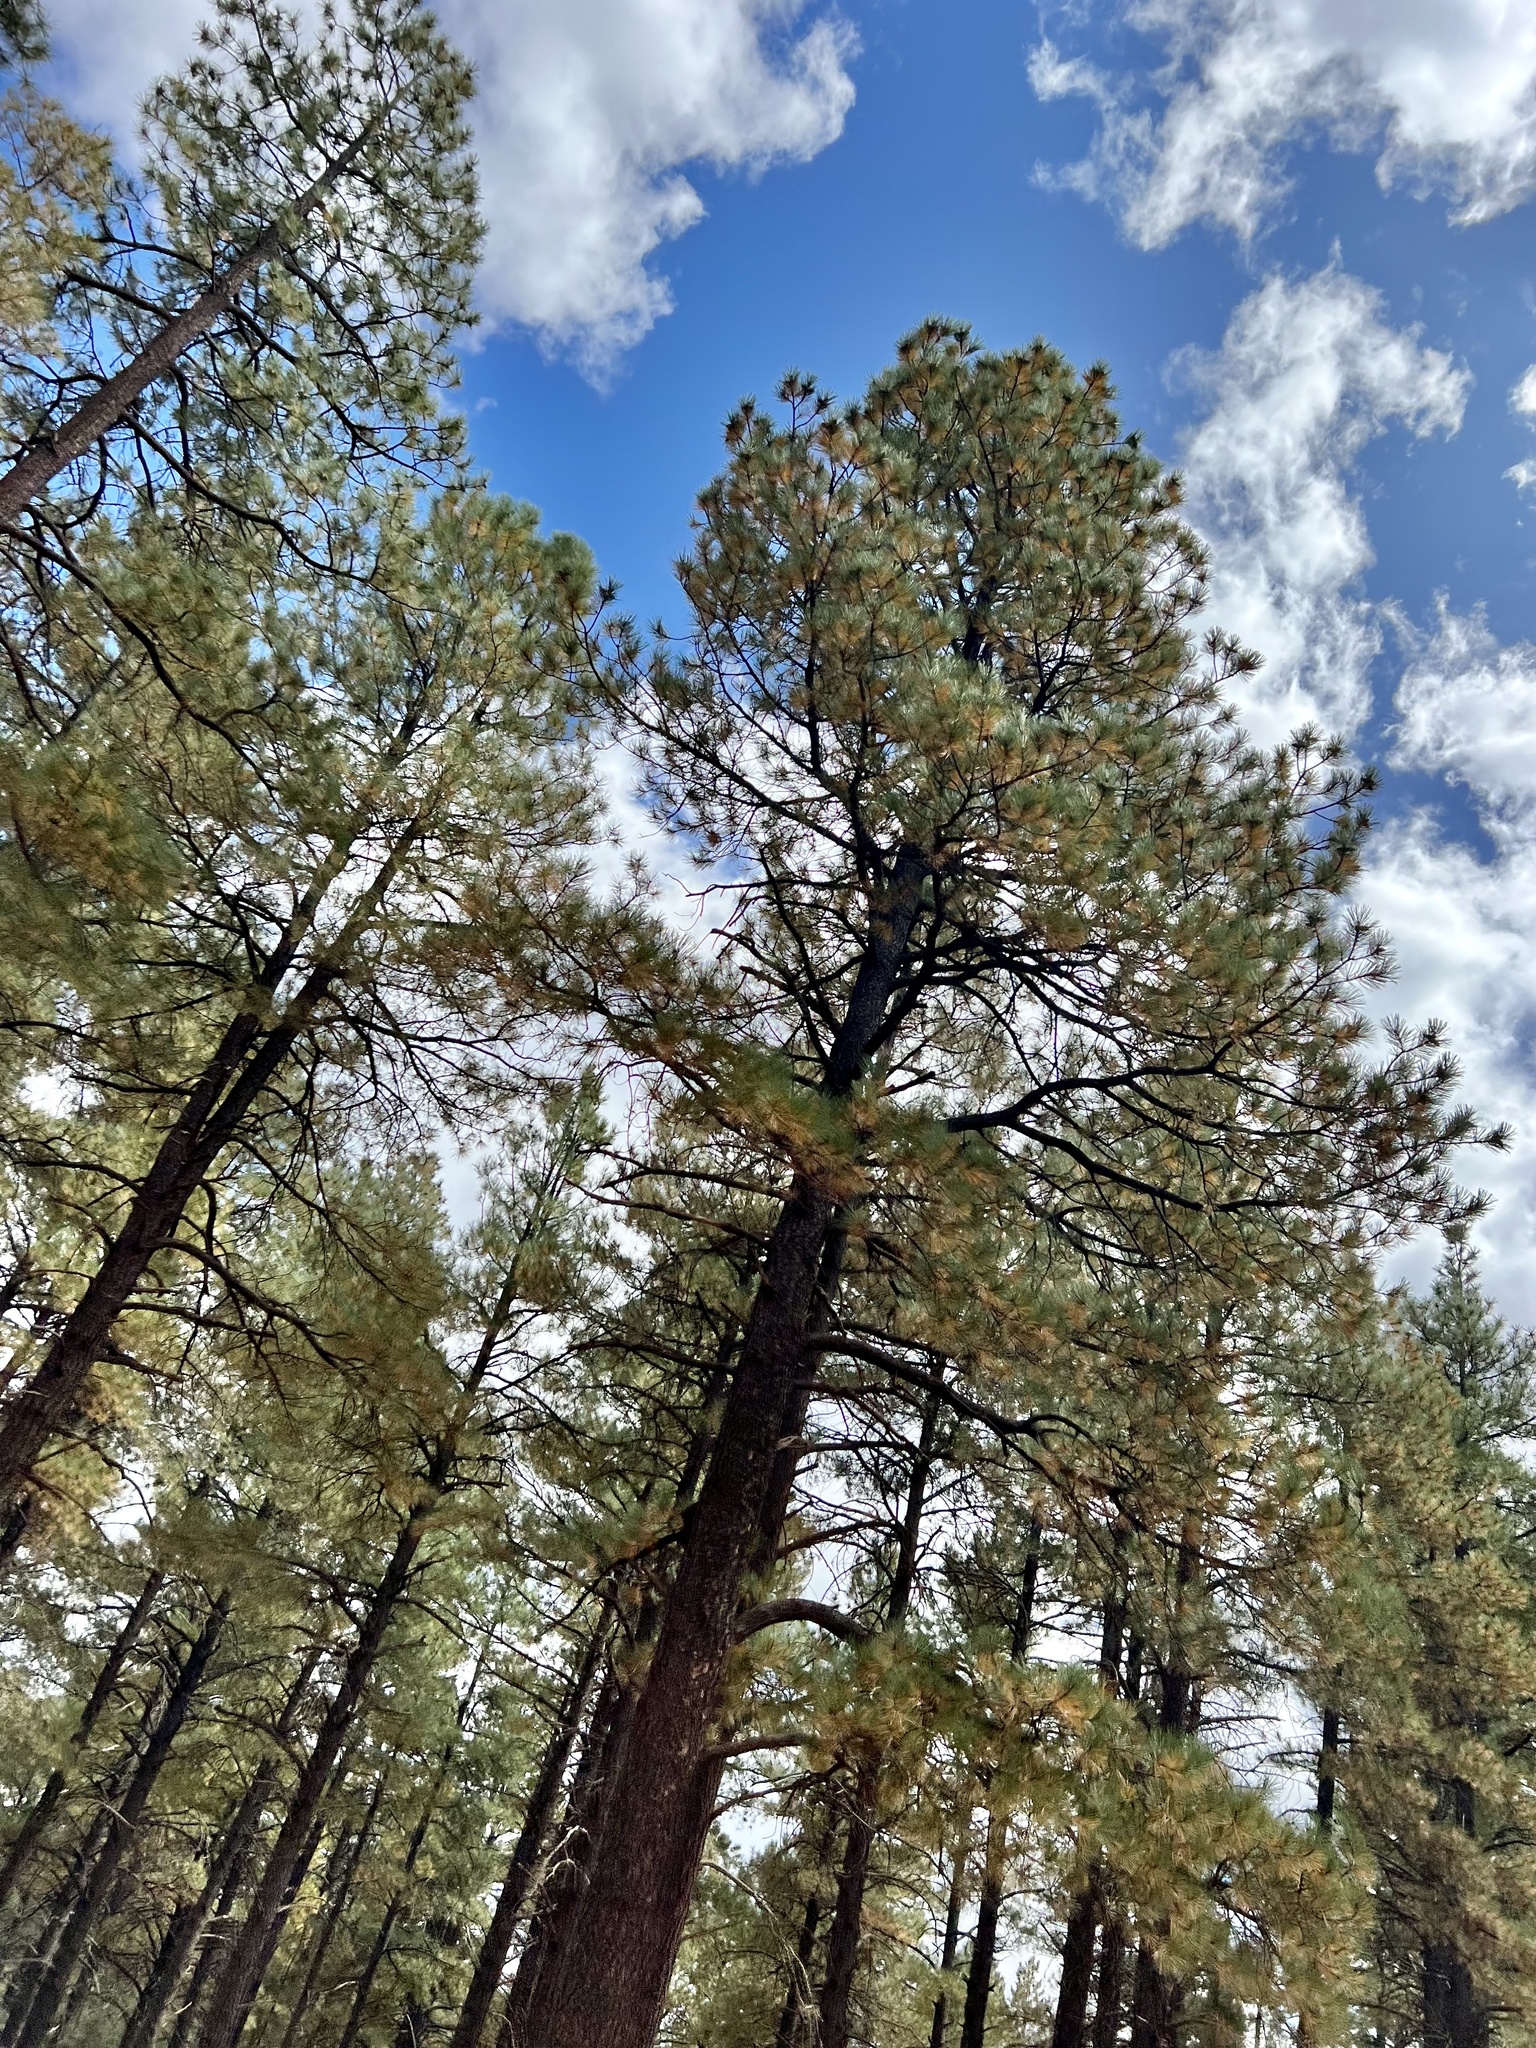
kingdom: Plantae
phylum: Tracheophyta
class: Pinopsida
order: Pinales
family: Pinaceae
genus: Pinus
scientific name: Pinus ponderosa
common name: Western yellow-pine
